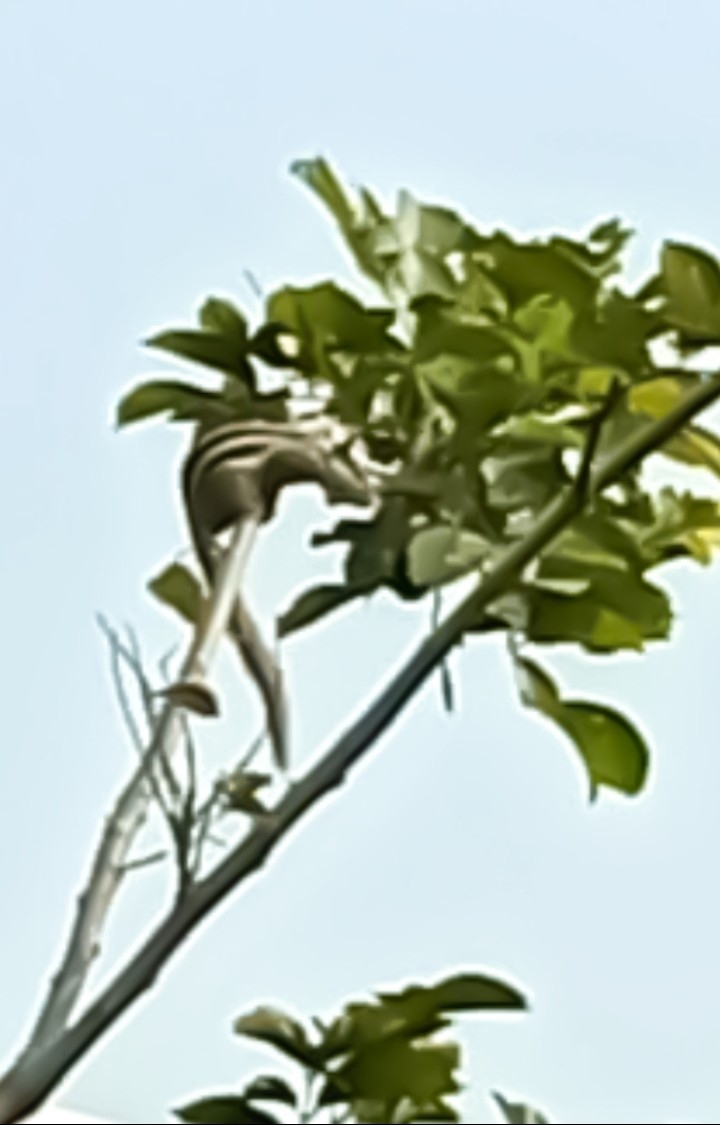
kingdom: Animalia
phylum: Chordata
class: Mammalia
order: Rodentia
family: Sciuridae
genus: Funambulus
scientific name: Funambulus pennantii
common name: Northern palm squirrel
